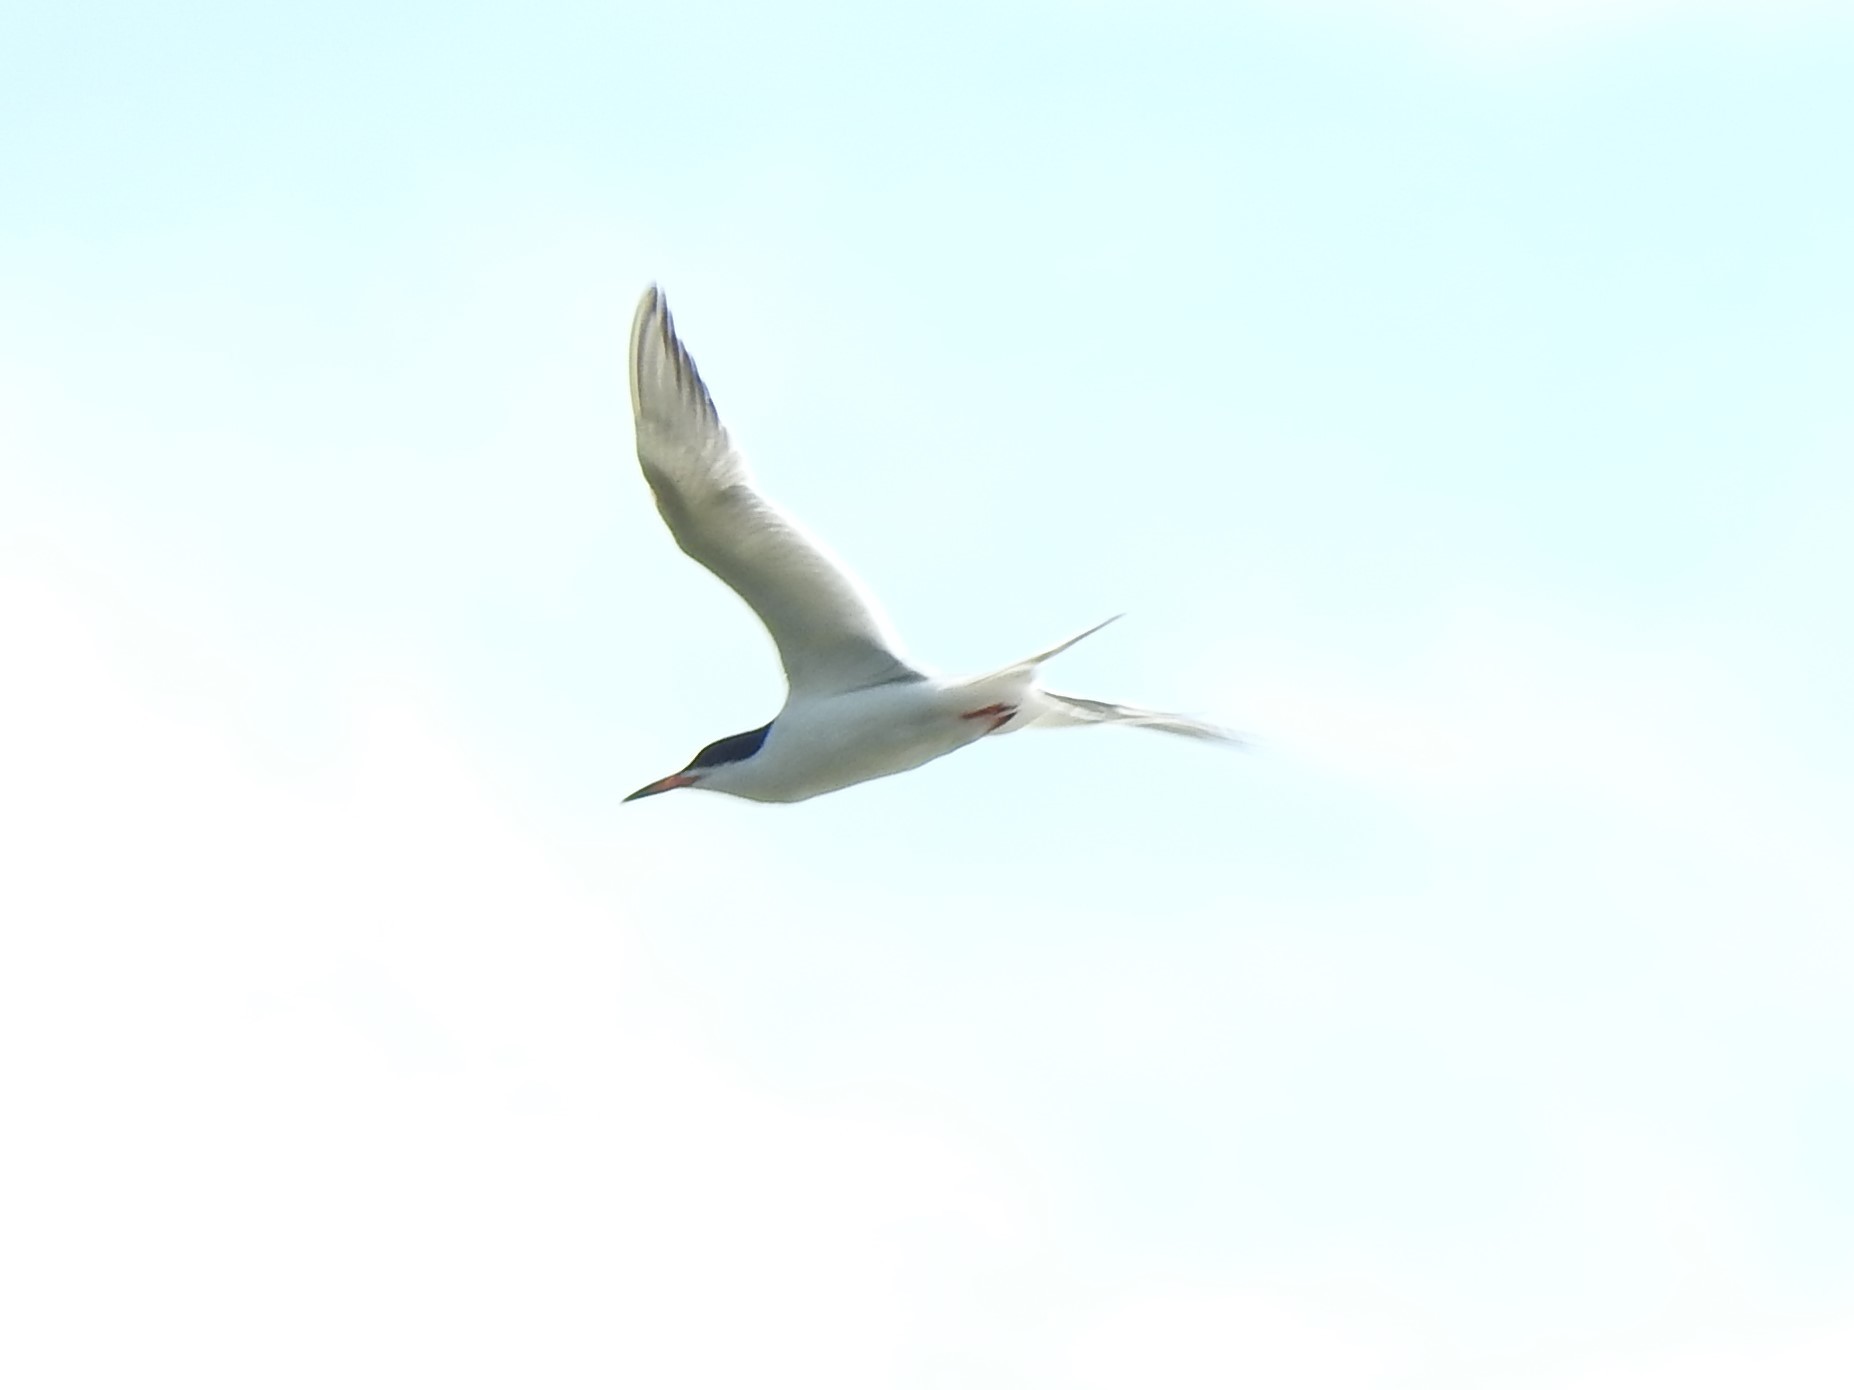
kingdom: Animalia
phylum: Chordata
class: Aves
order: Charadriiformes
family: Laridae
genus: Sterna
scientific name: Sterna forsteri
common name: Forster's tern
